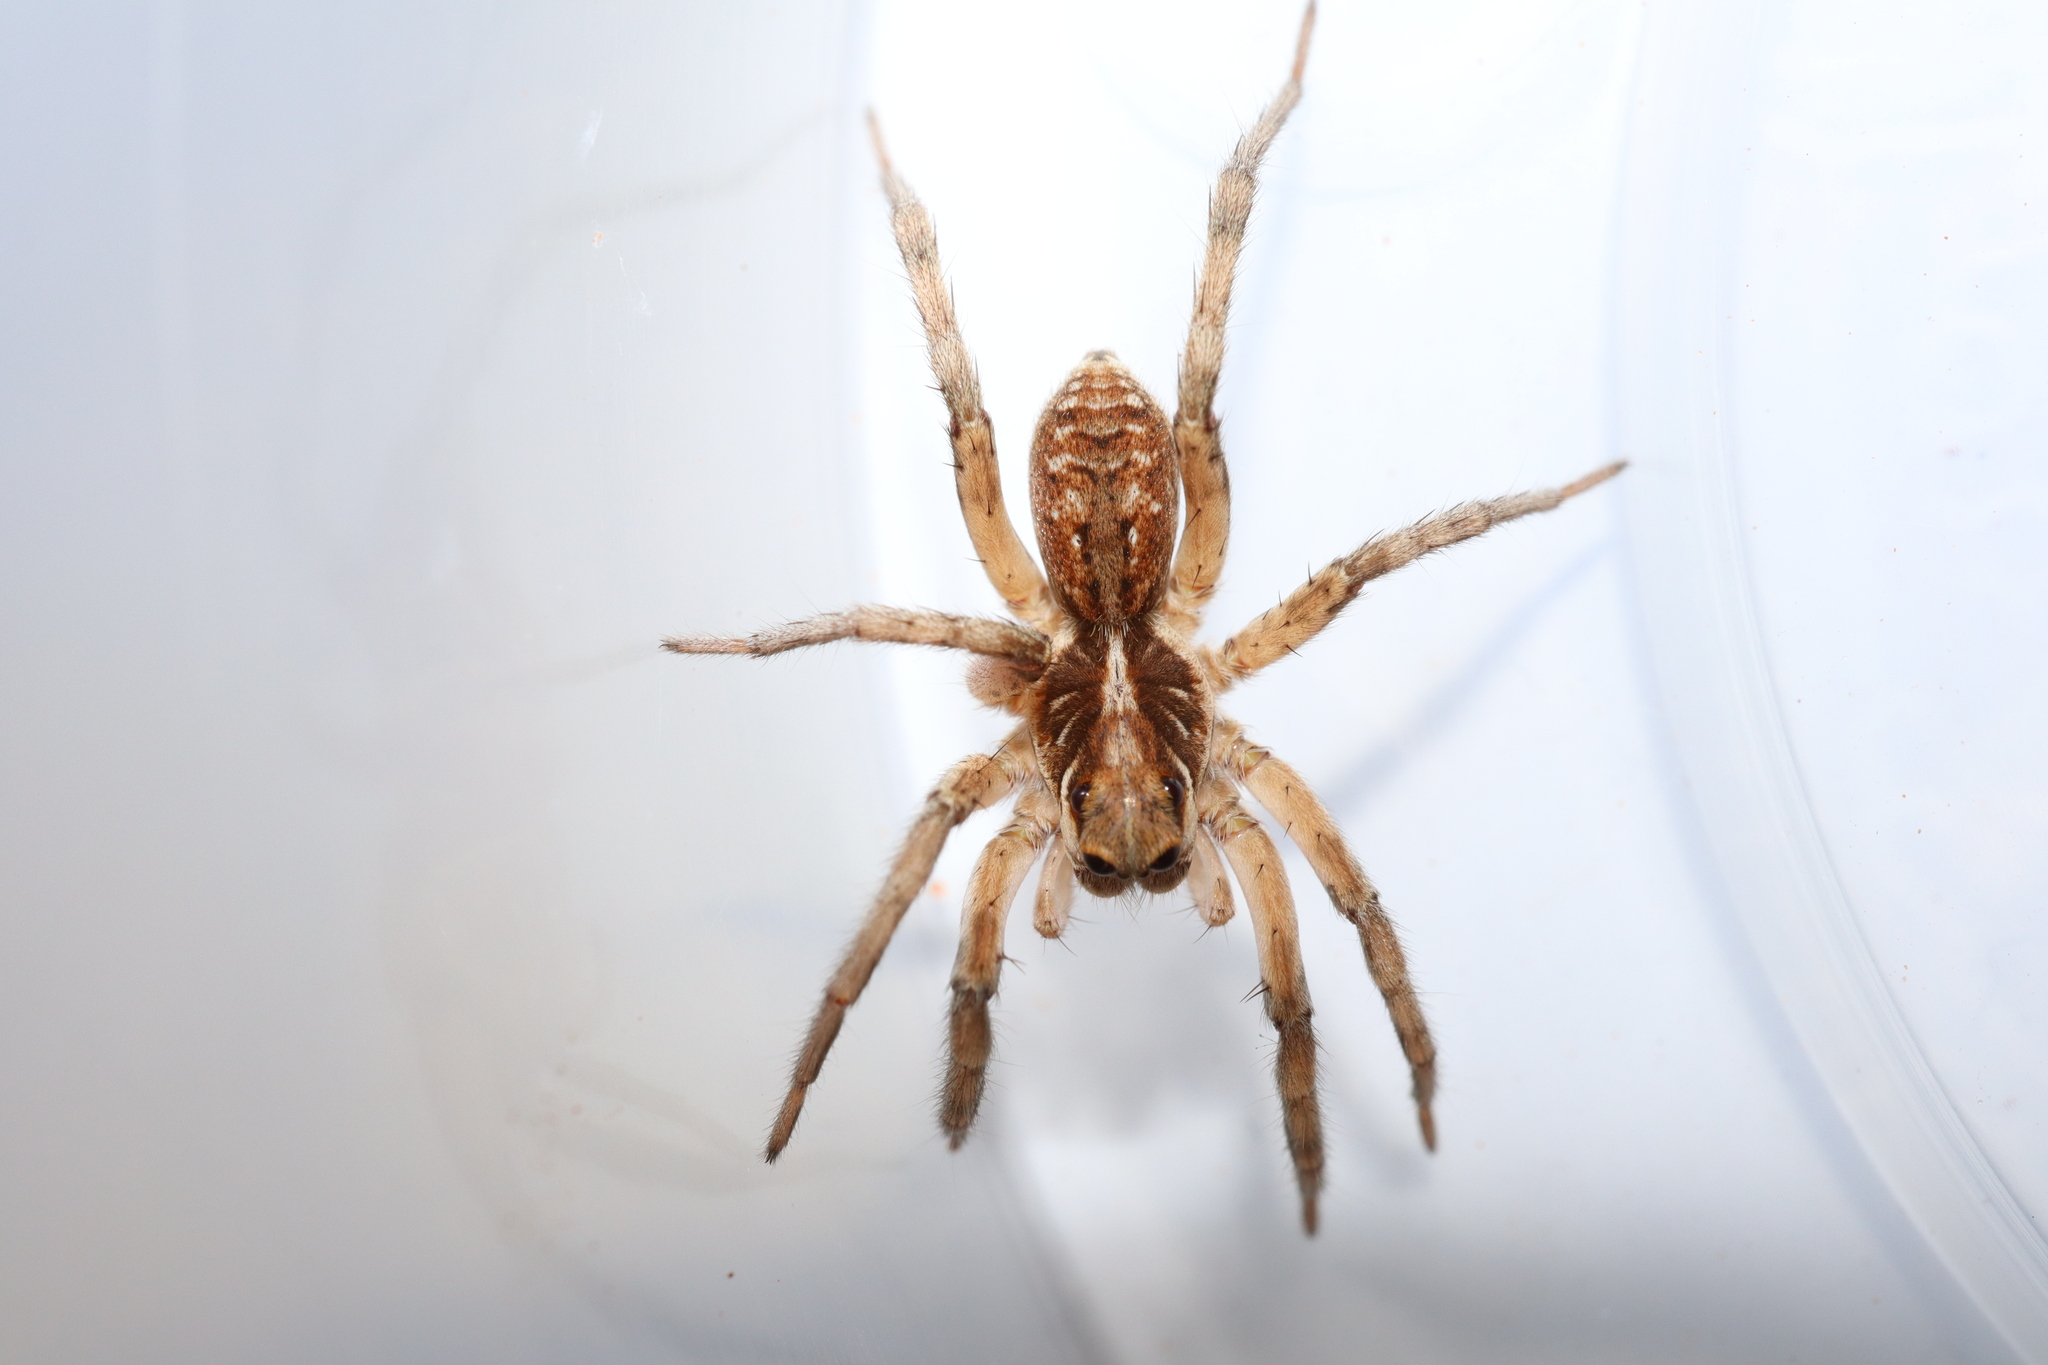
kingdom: Animalia
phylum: Arthropoda
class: Arachnida
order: Araneae
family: Lycosidae
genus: Tasmanicosa
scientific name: Tasmanicosa ramosa
